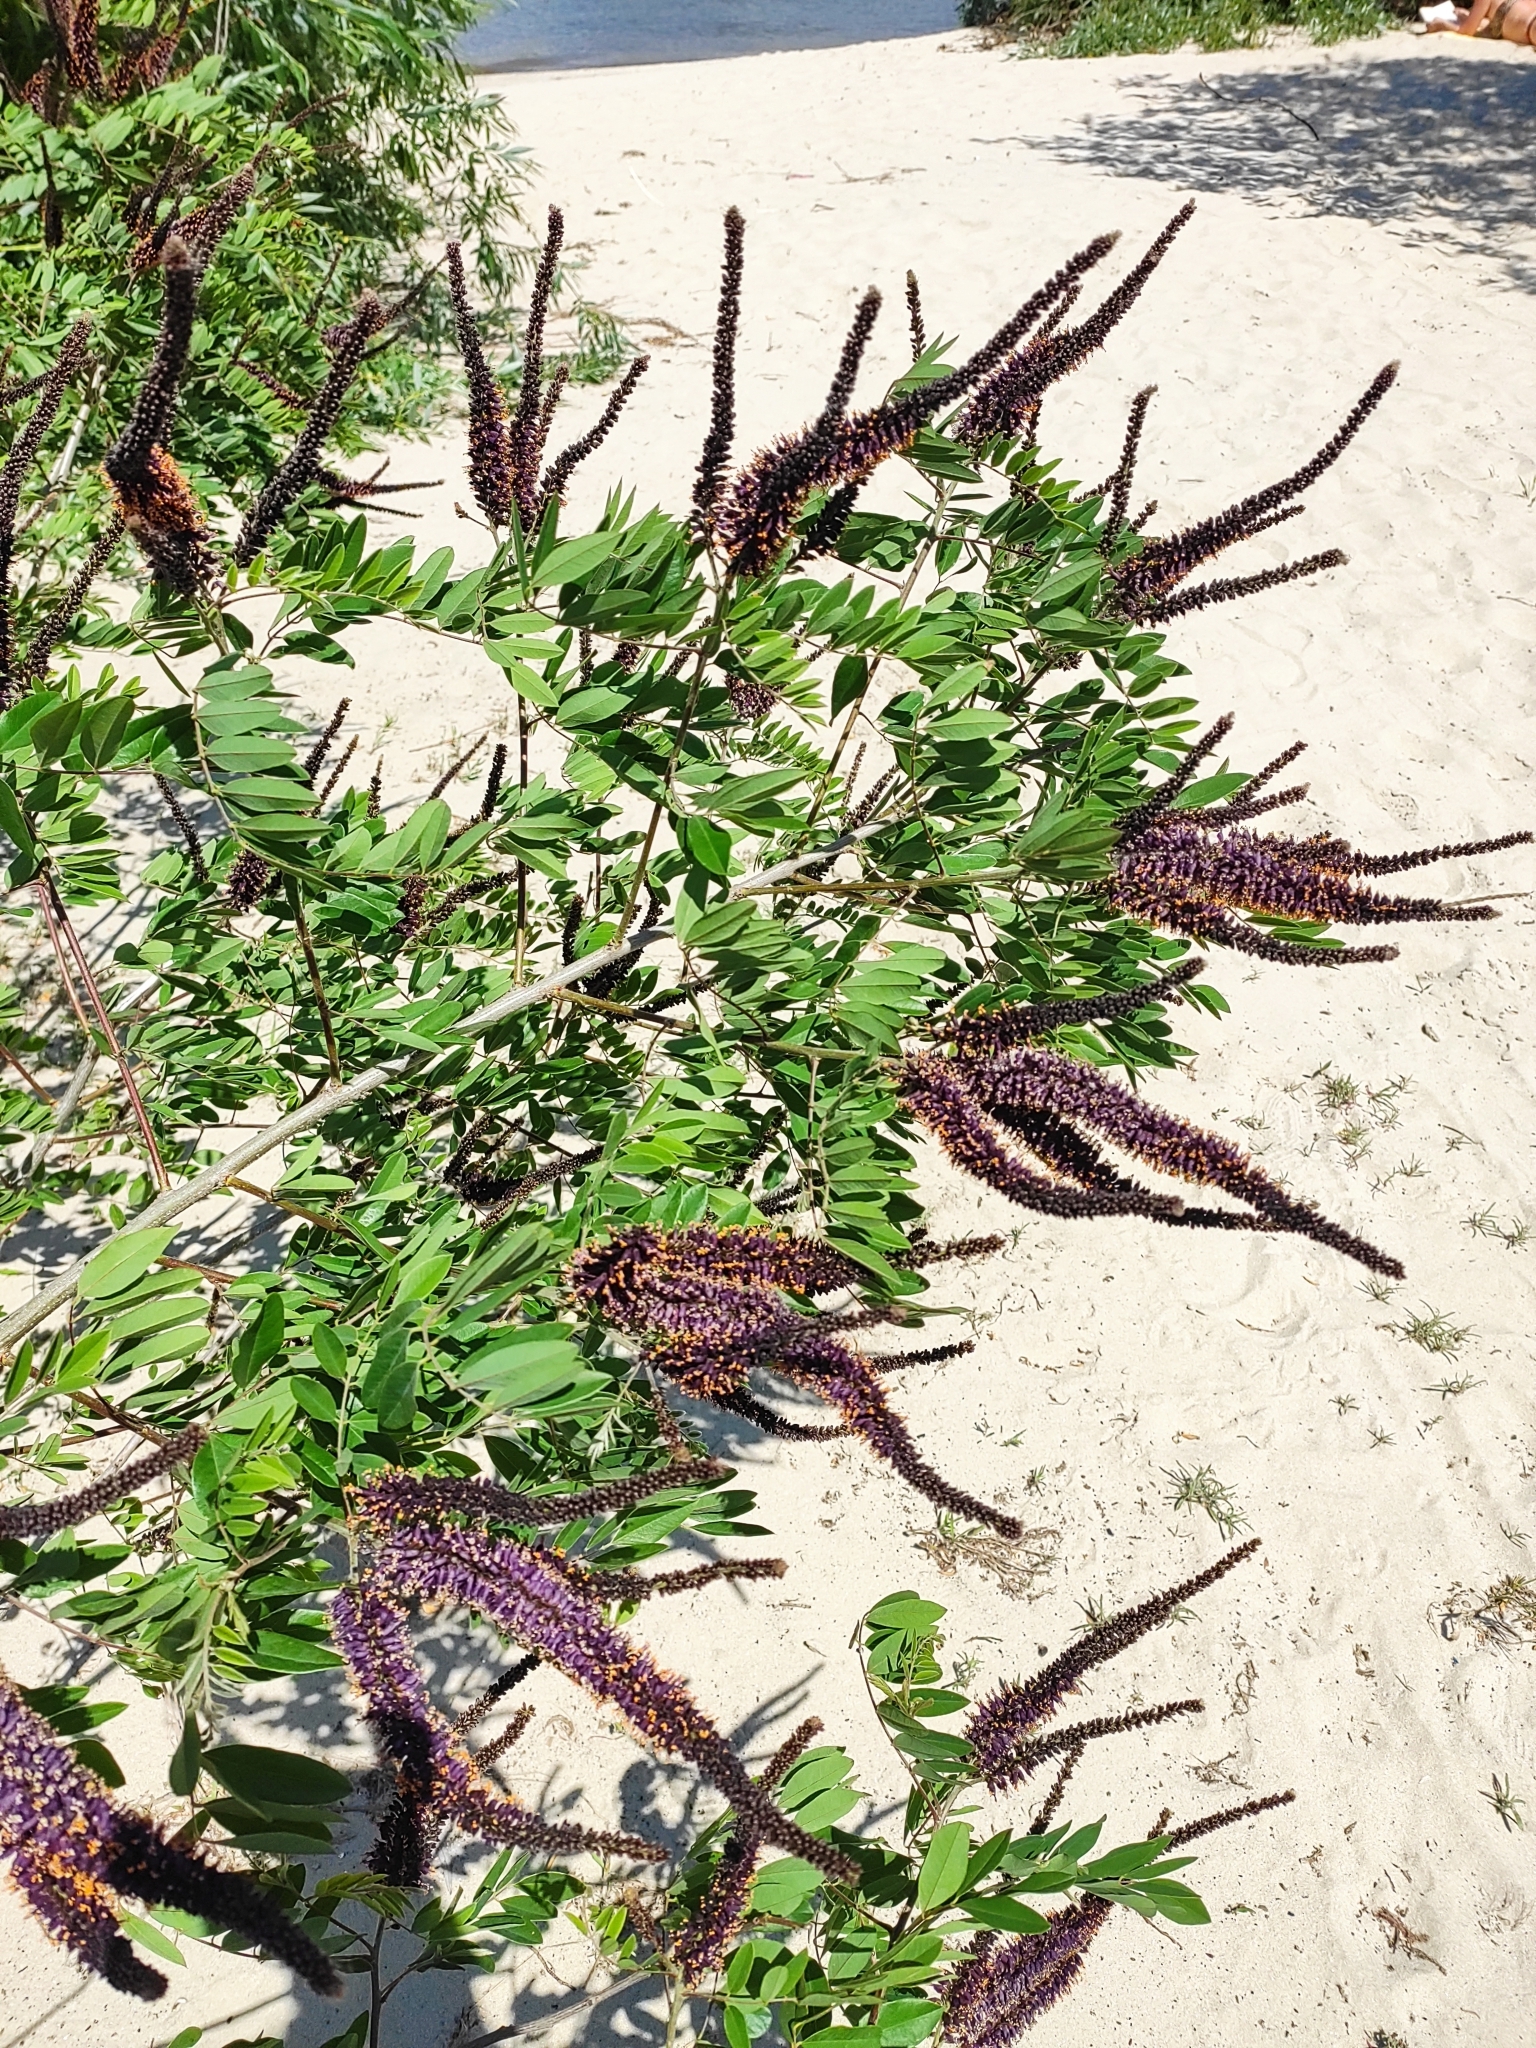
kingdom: Plantae
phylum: Tracheophyta
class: Magnoliopsida
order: Fabales
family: Fabaceae
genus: Amorpha
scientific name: Amorpha fruticosa
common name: False indigo
